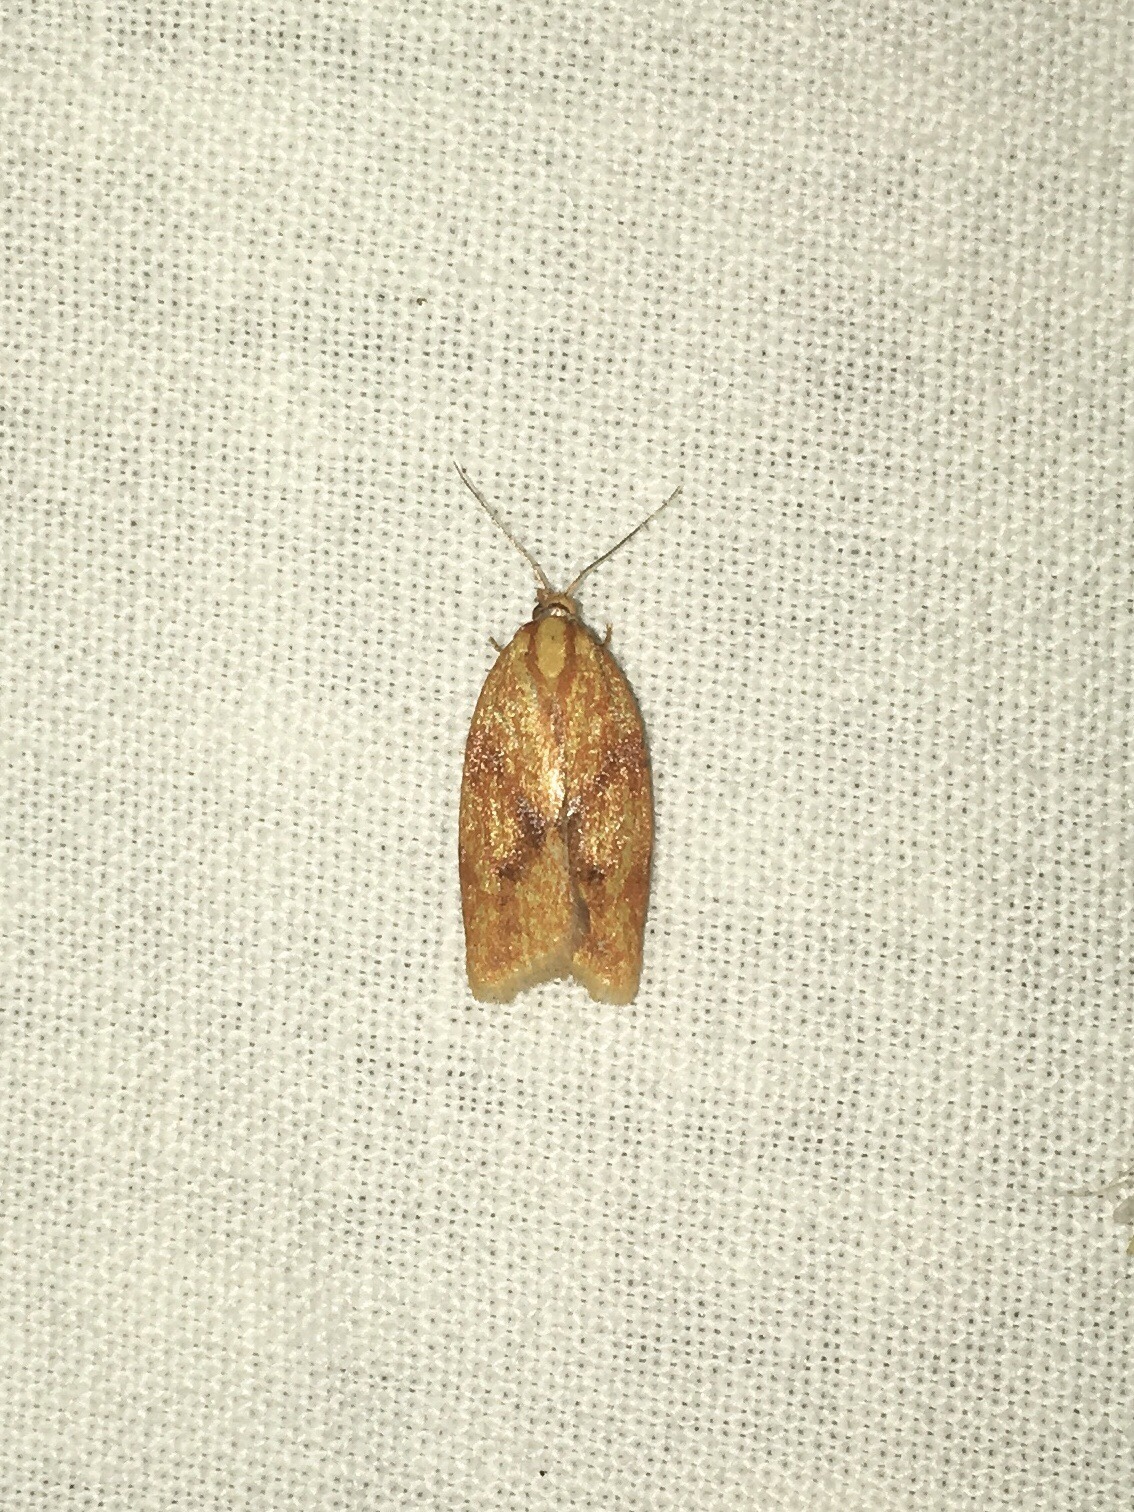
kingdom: Animalia
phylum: Arthropoda
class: Insecta
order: Lepidoptera
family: Tortricidae
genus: Sparganothis
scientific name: Sparganothis sulfureana
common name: Sparganothis fruitworm moth
